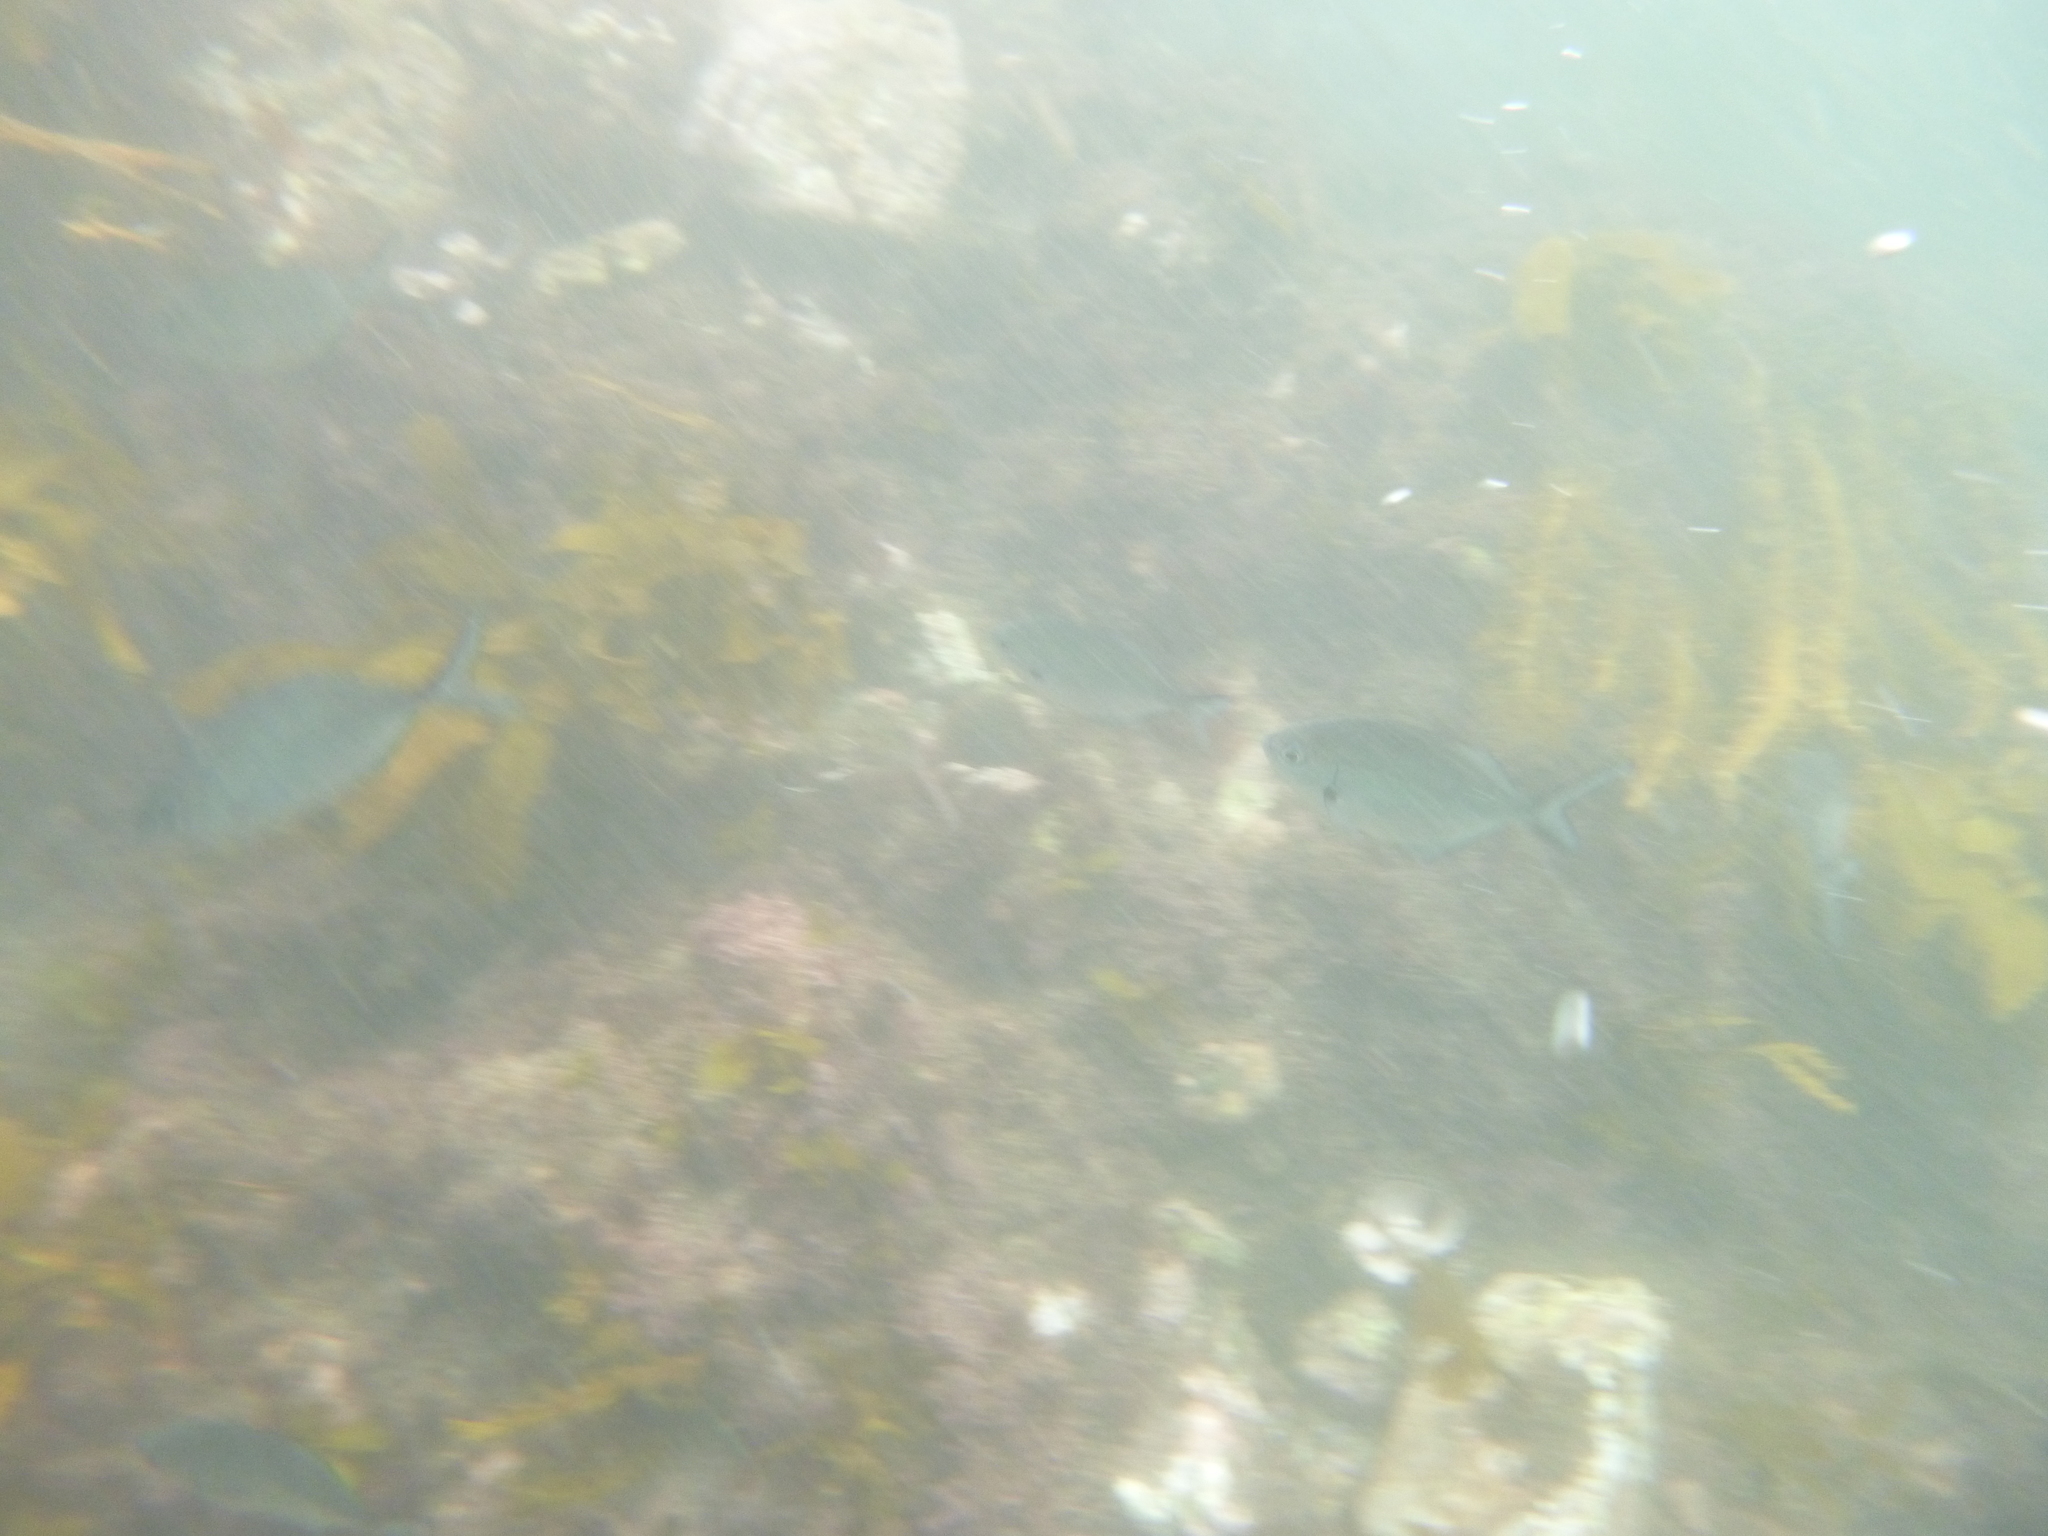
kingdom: Animalia
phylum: Chordata
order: Perciformes
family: Kyphosidae
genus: Scorpis
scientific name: Scorpis lineolata
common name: Sweep
